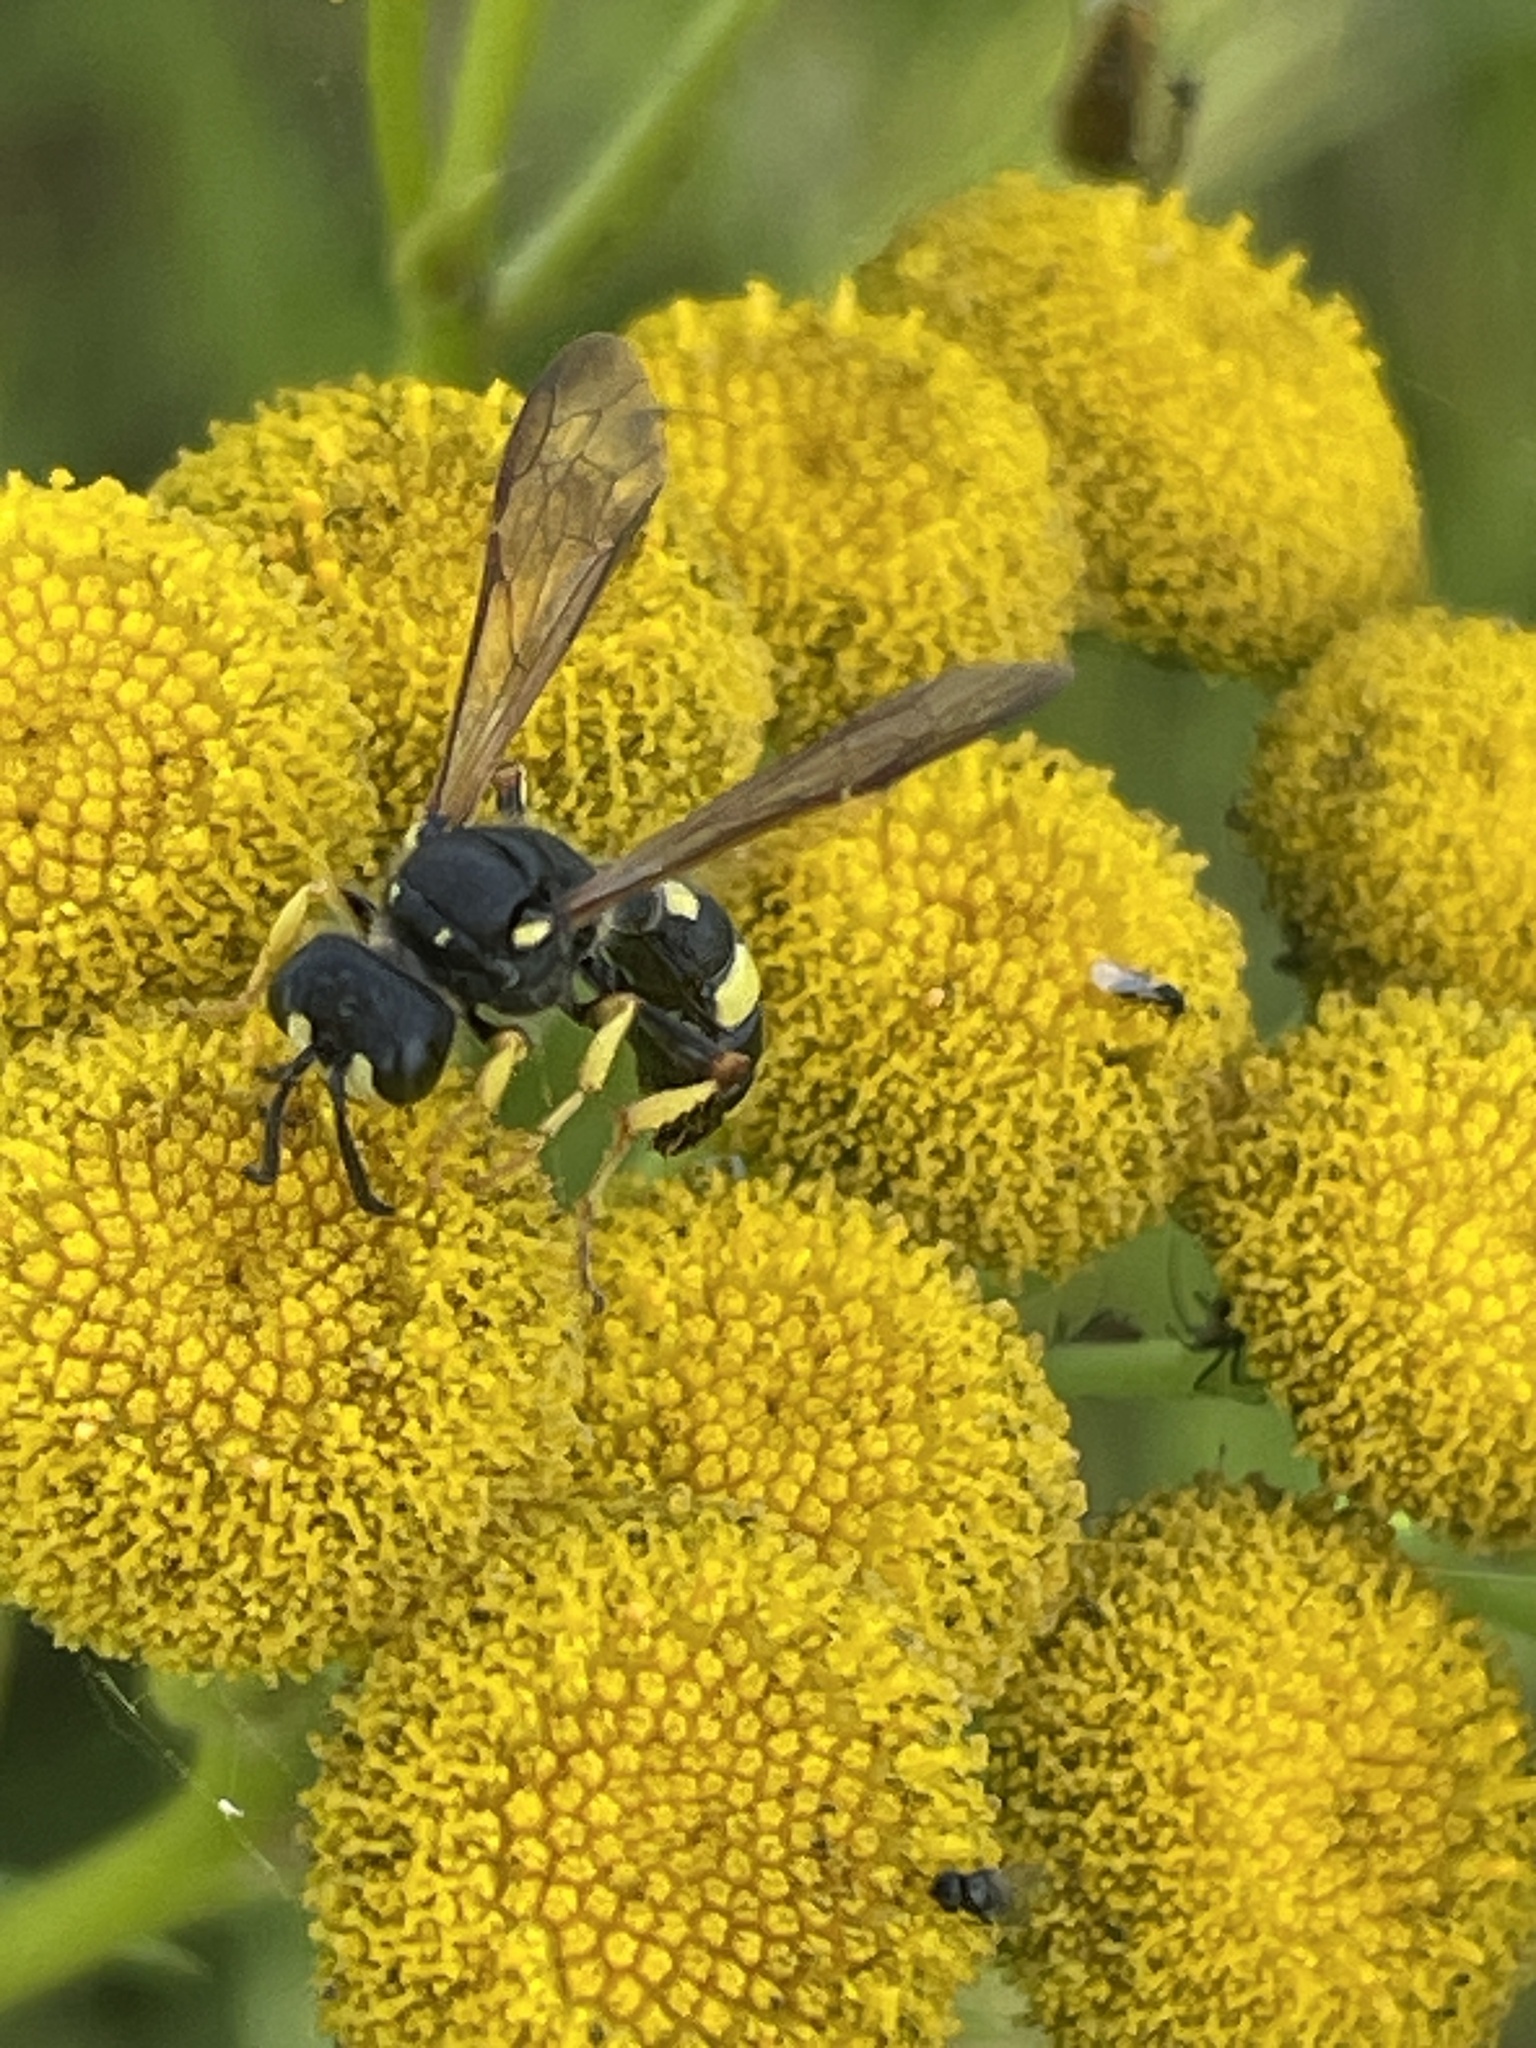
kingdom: Animalia
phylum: Arthropoda
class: Insecta
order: Hymenoptera
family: Crabronidae
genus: Cerceris
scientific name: Cerceris rybyensis
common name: Ornate tailed digger wasp
